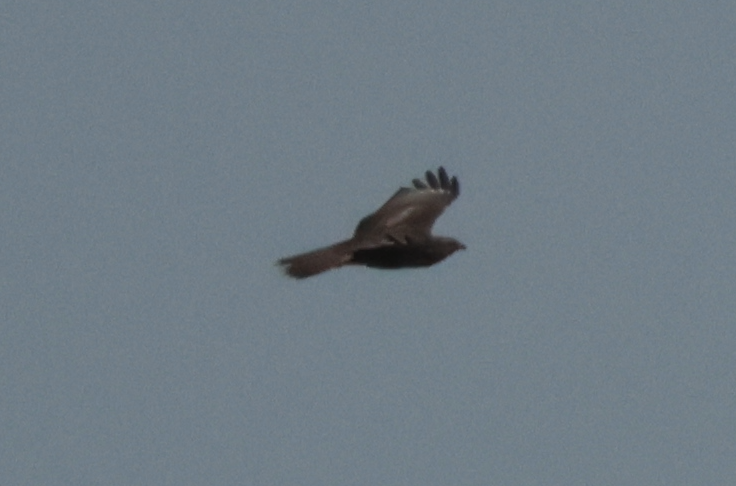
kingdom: Animalia
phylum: Chordata
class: Aves
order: Accipitriformes
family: Accipitridae
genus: Buteo
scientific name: Buteo hemilasius
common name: Upland buzzard
